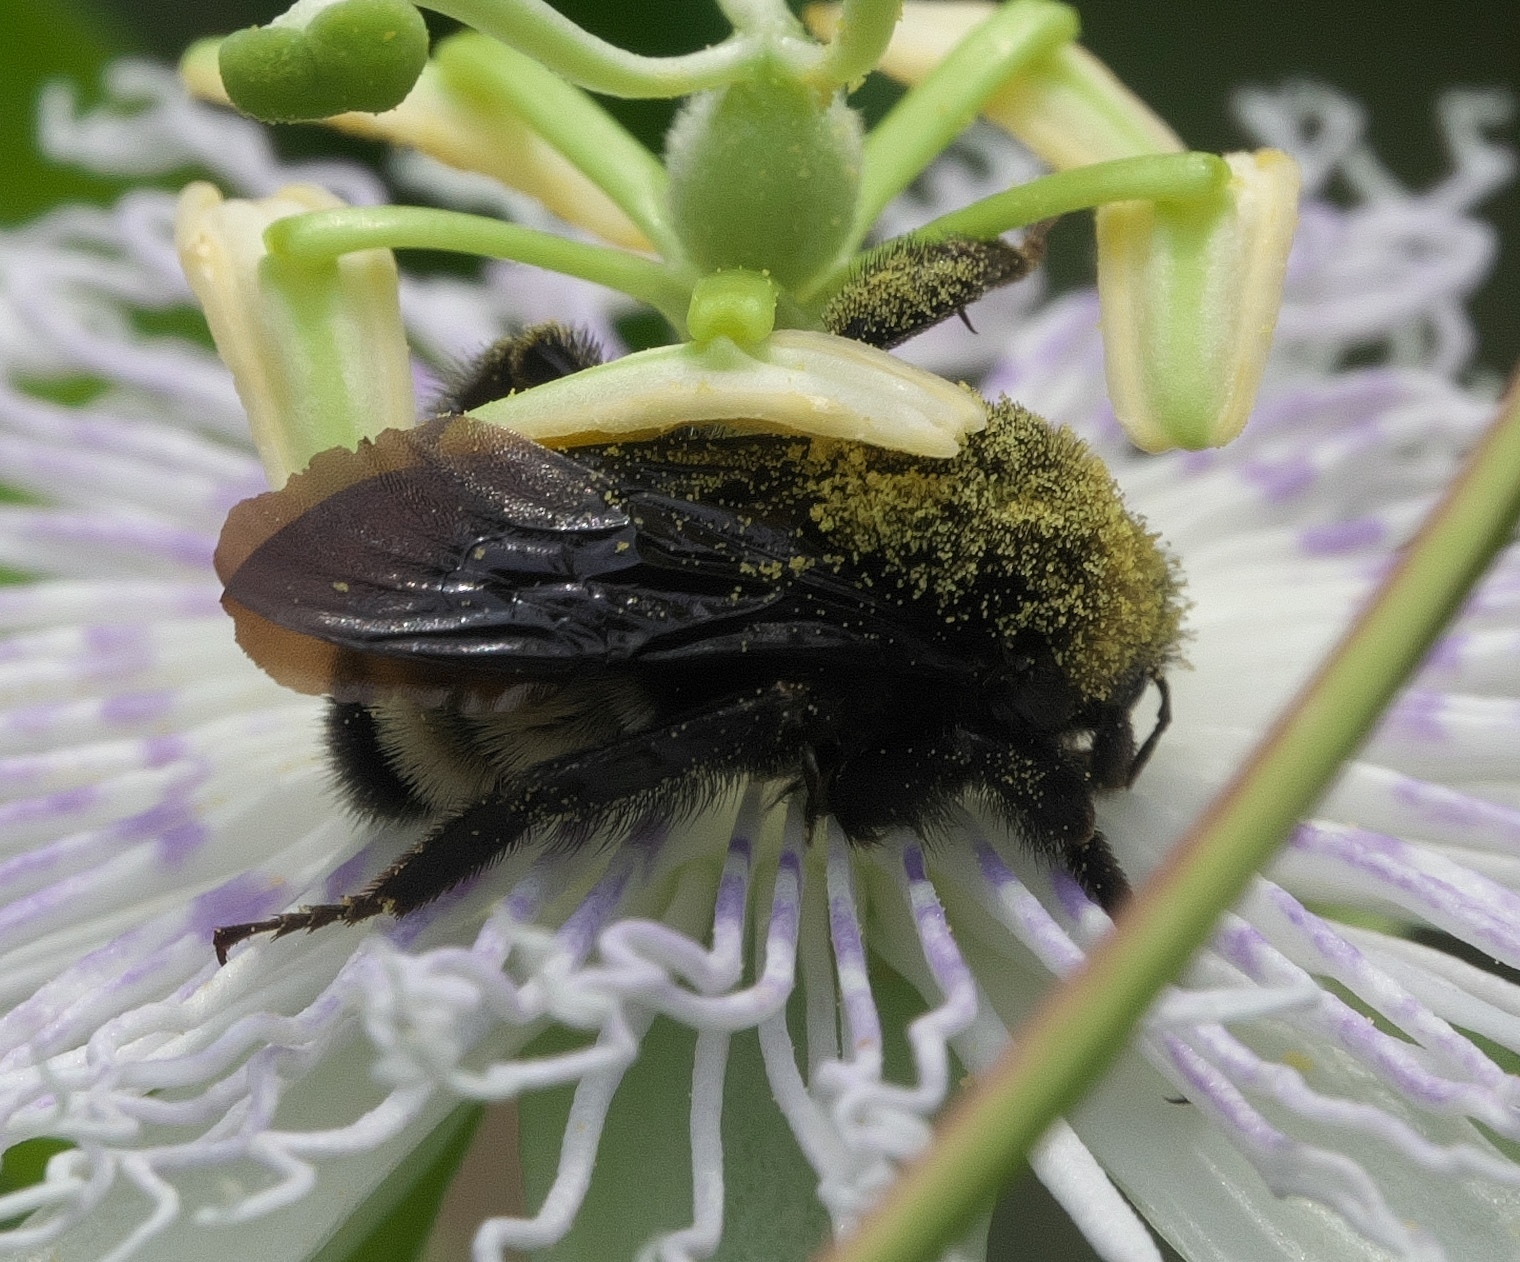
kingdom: Animalia
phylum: Arthropoda
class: Insecta
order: Hymenoptera
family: Apidae
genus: Bombus
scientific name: Bombus pensylvanicus
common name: Bumble bee
